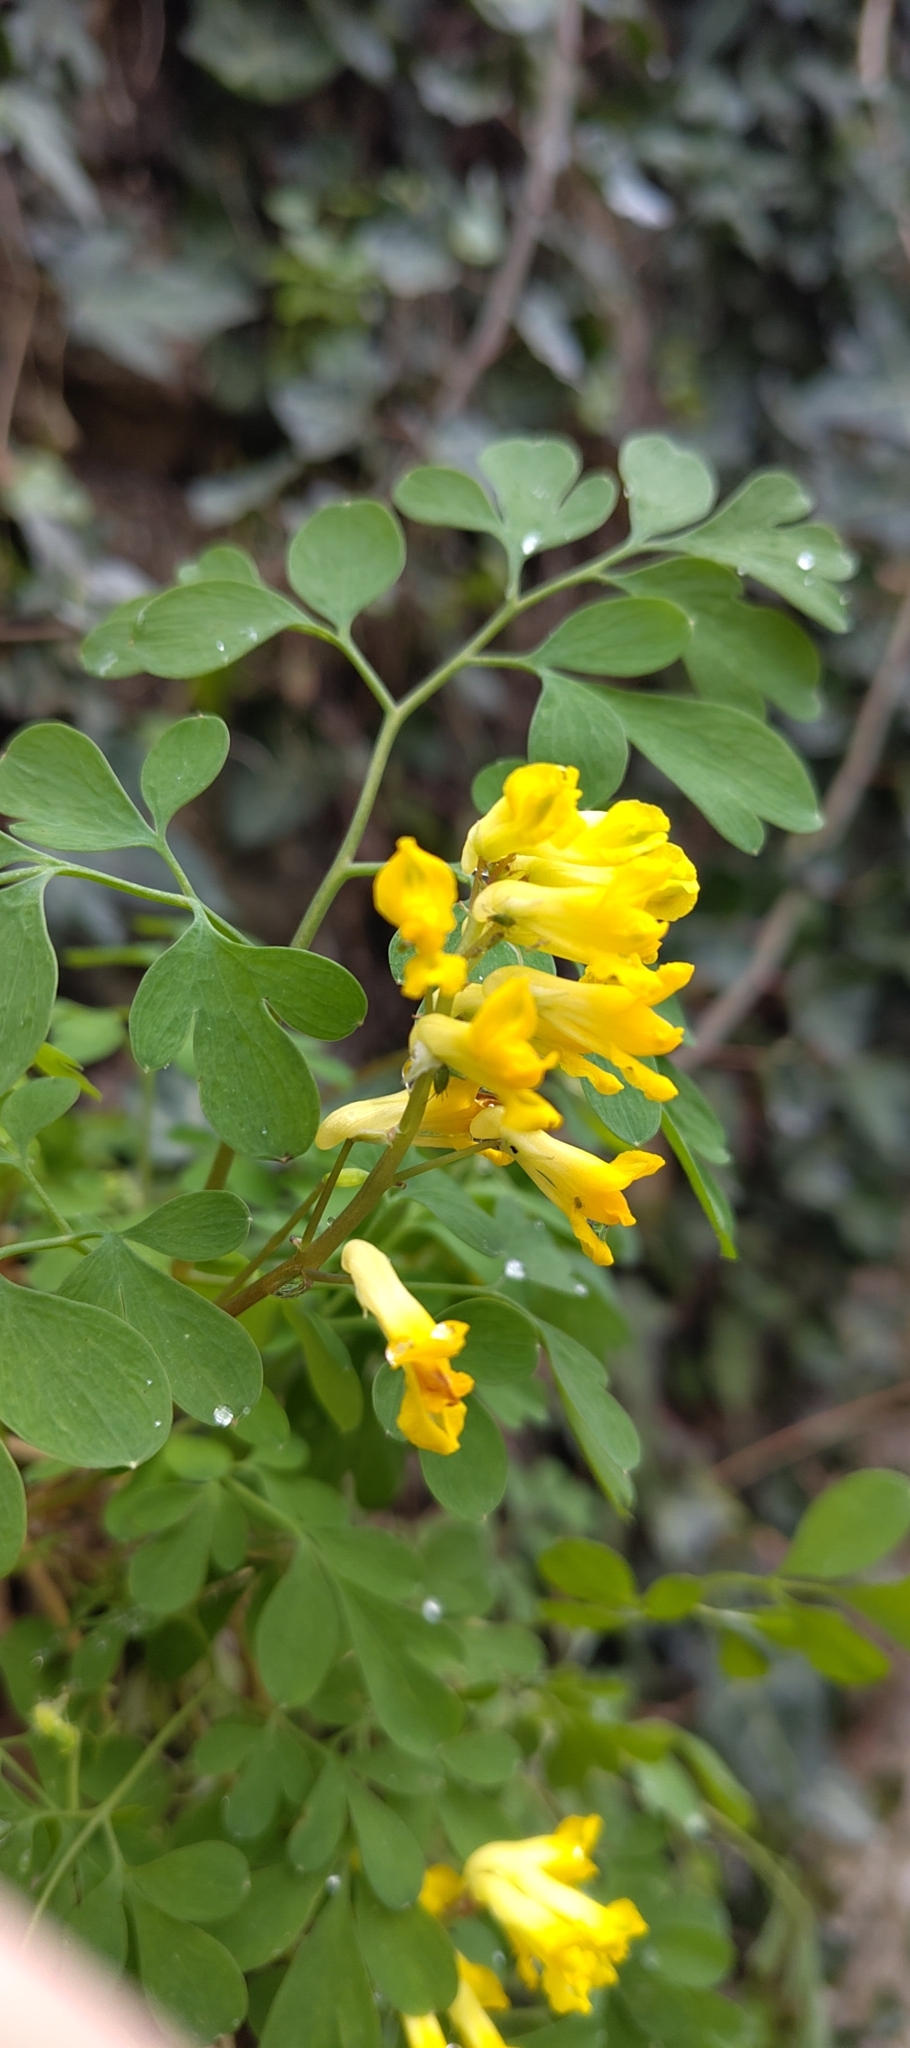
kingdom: Plantae
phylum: Tracheophyta
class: Magnoliopsida
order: Ranunculales
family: Papaveraceae
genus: Pseudofumaria
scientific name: Pseudofumaria lutea
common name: Yellow corydalis
